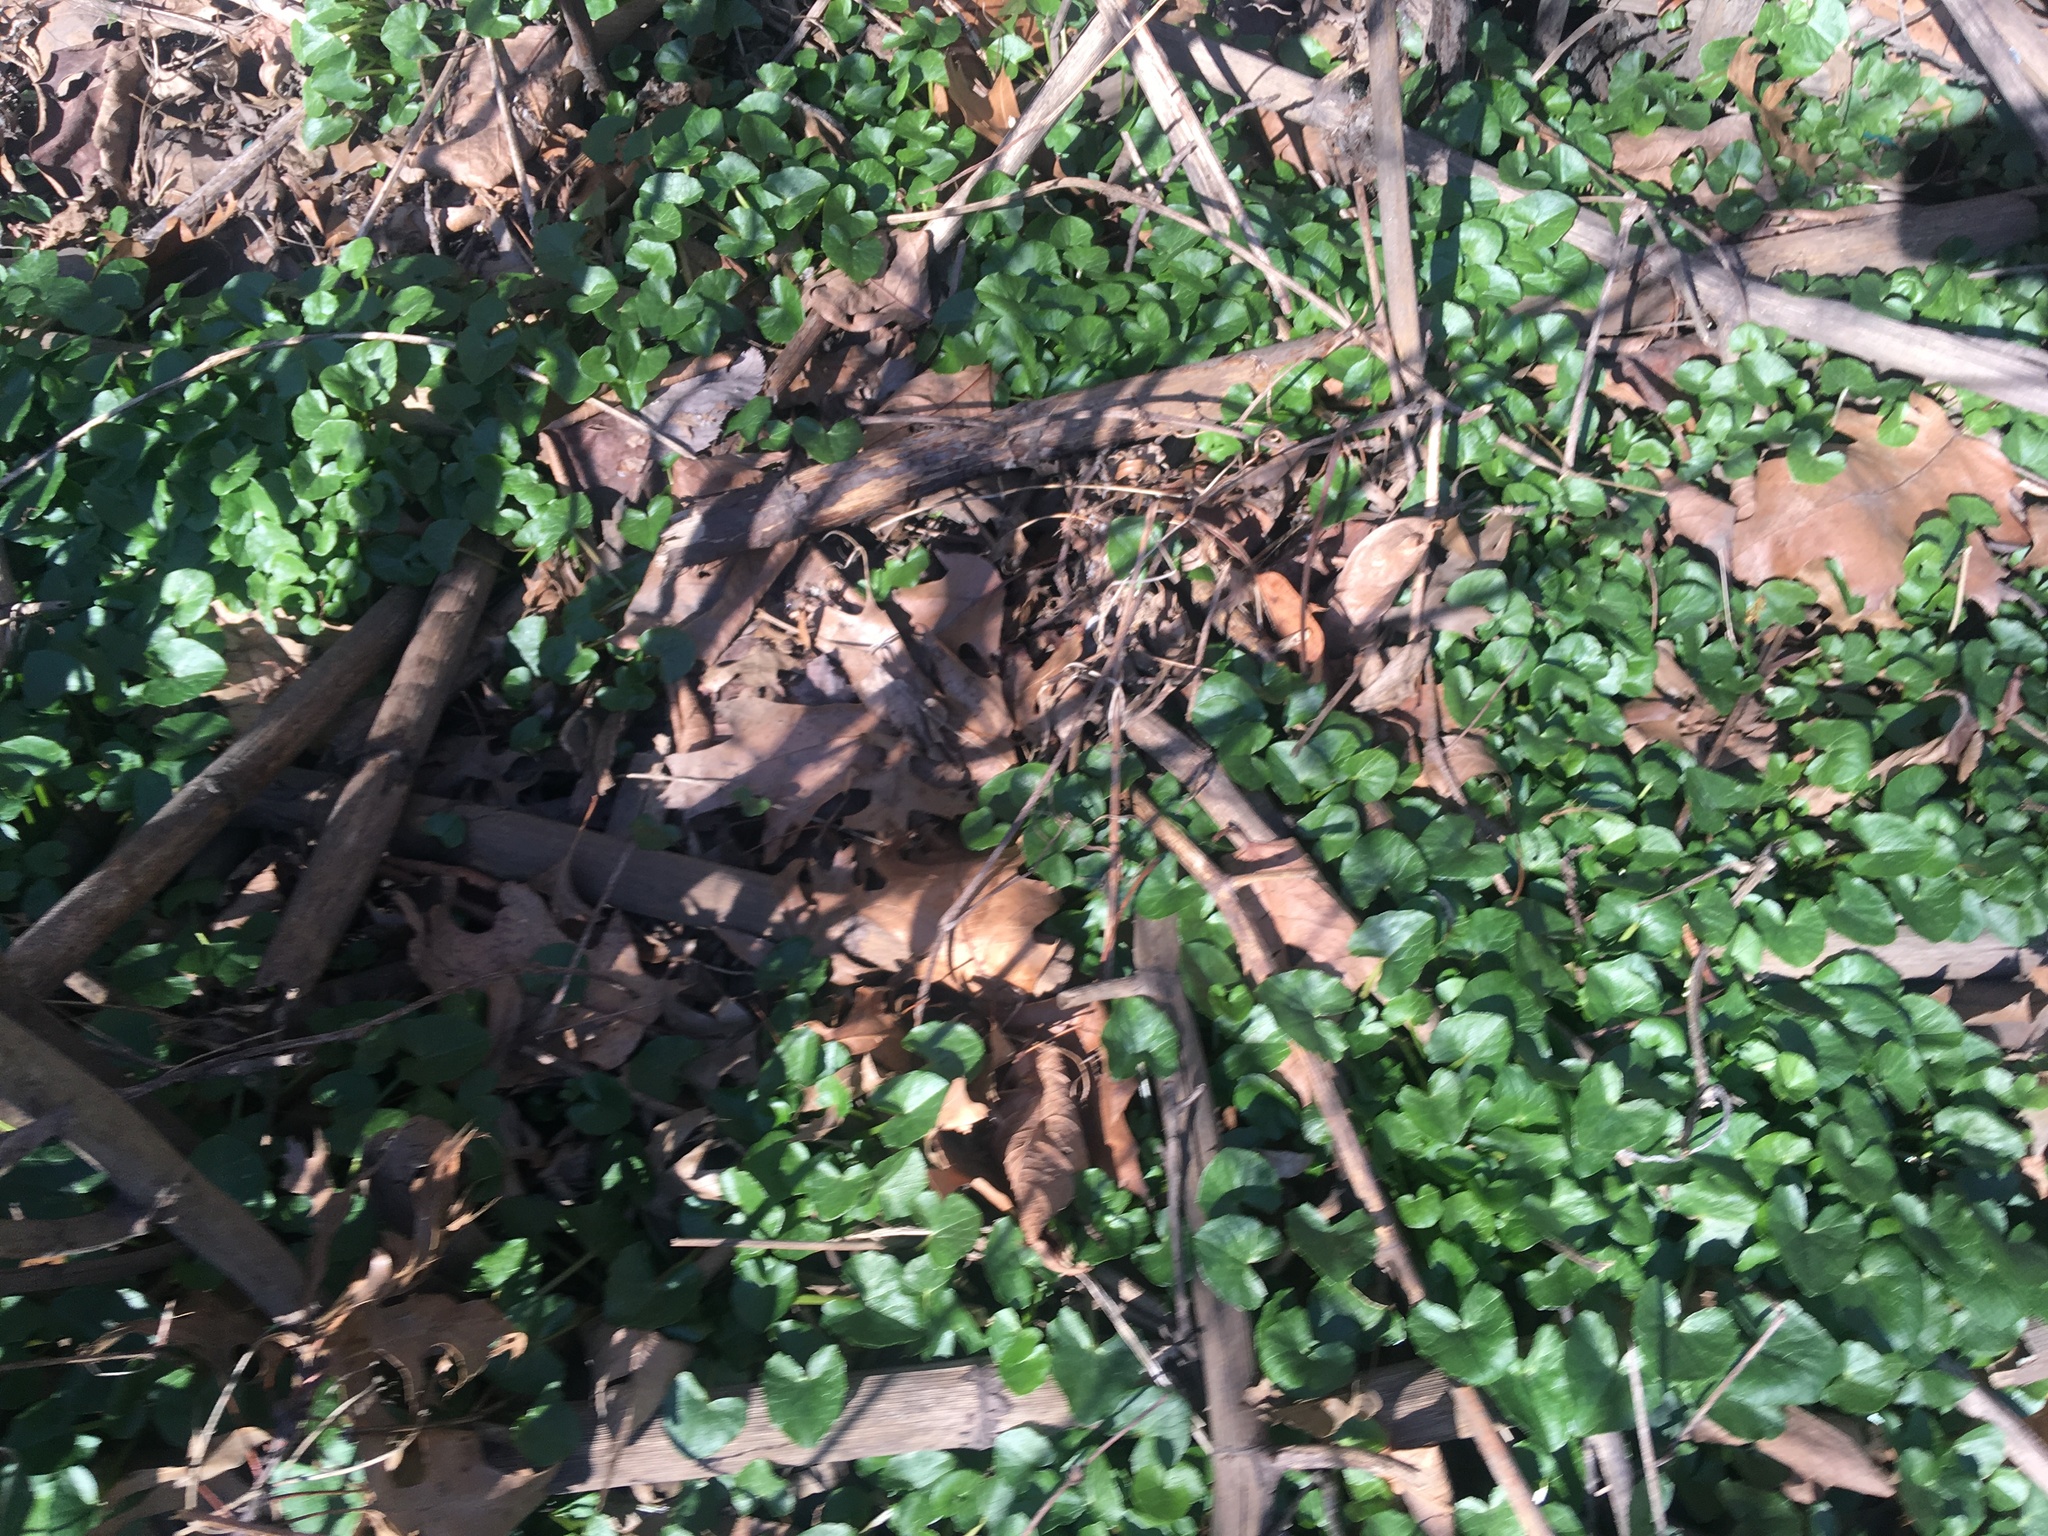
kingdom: Plantae
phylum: Tracheophyta
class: Magnoliopsida
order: Ranunculales
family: Ranunculaceae
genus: Ficaria
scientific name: Ficaria verna
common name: Lesser celandine
